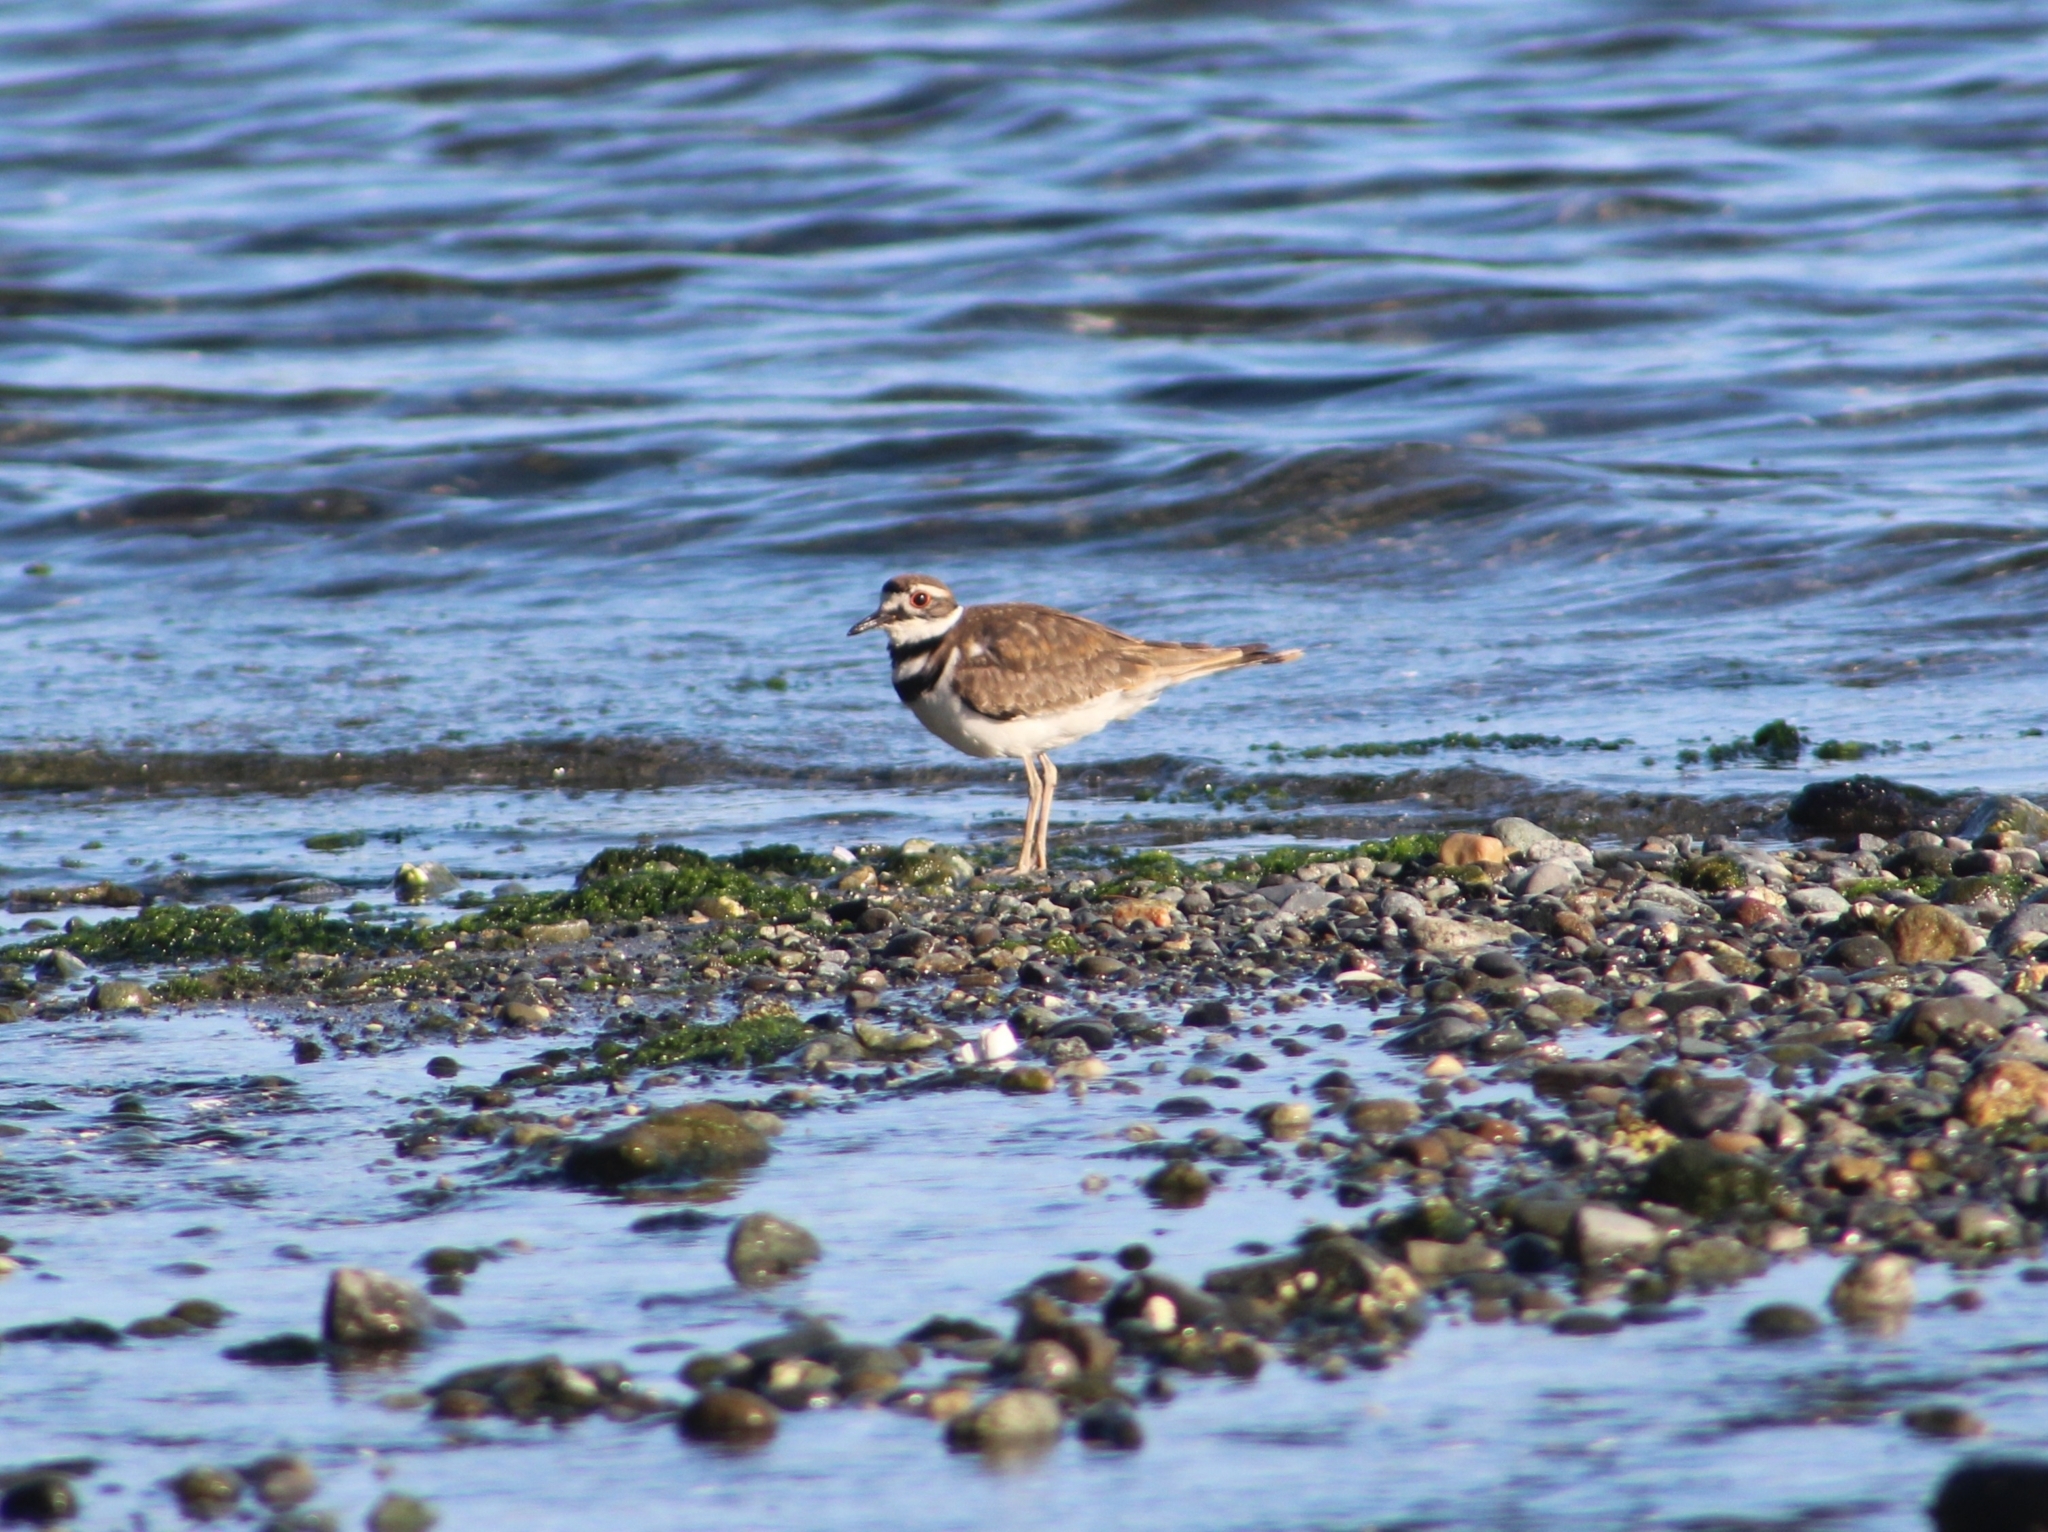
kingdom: Animalia
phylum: Chordata
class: Aves
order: Charadriiformes
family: Charadriidae
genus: Charadrius
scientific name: Charadrius vociferus
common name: Killdeer
